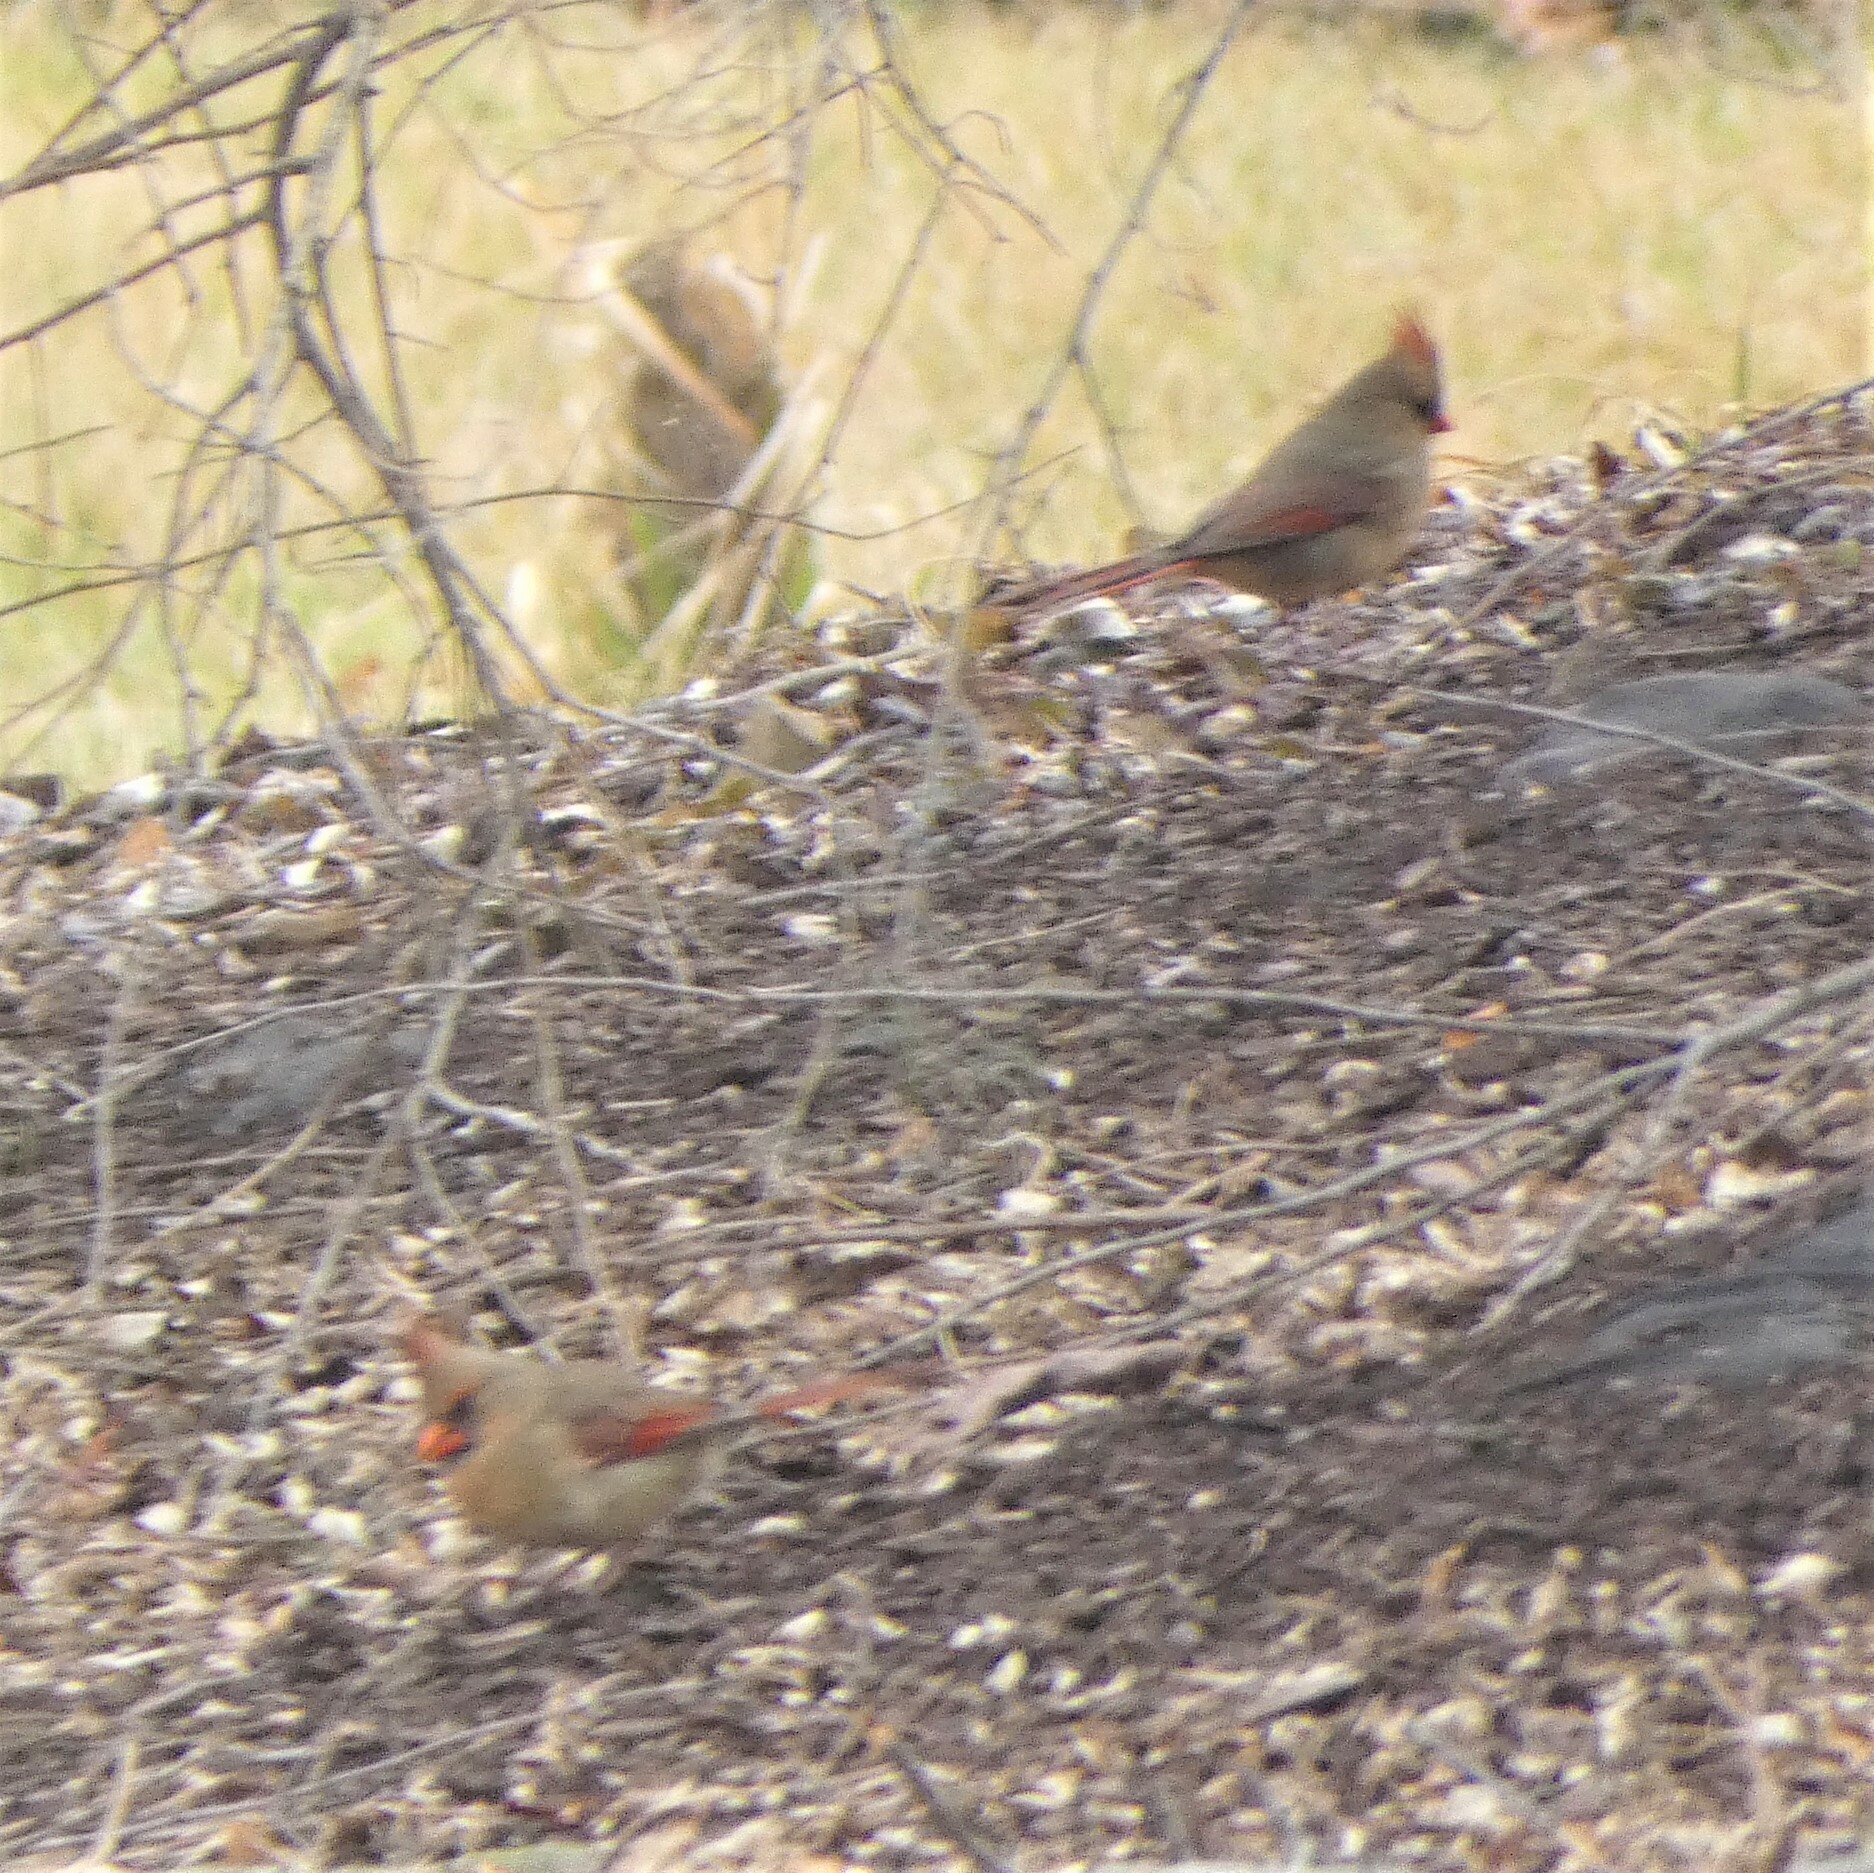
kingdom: Animalia
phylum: Chordata
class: Aves
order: Passeriformes
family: Cardinalidae
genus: Cardinalis
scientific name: Cardinalis cardinalis
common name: Northern cardinal
